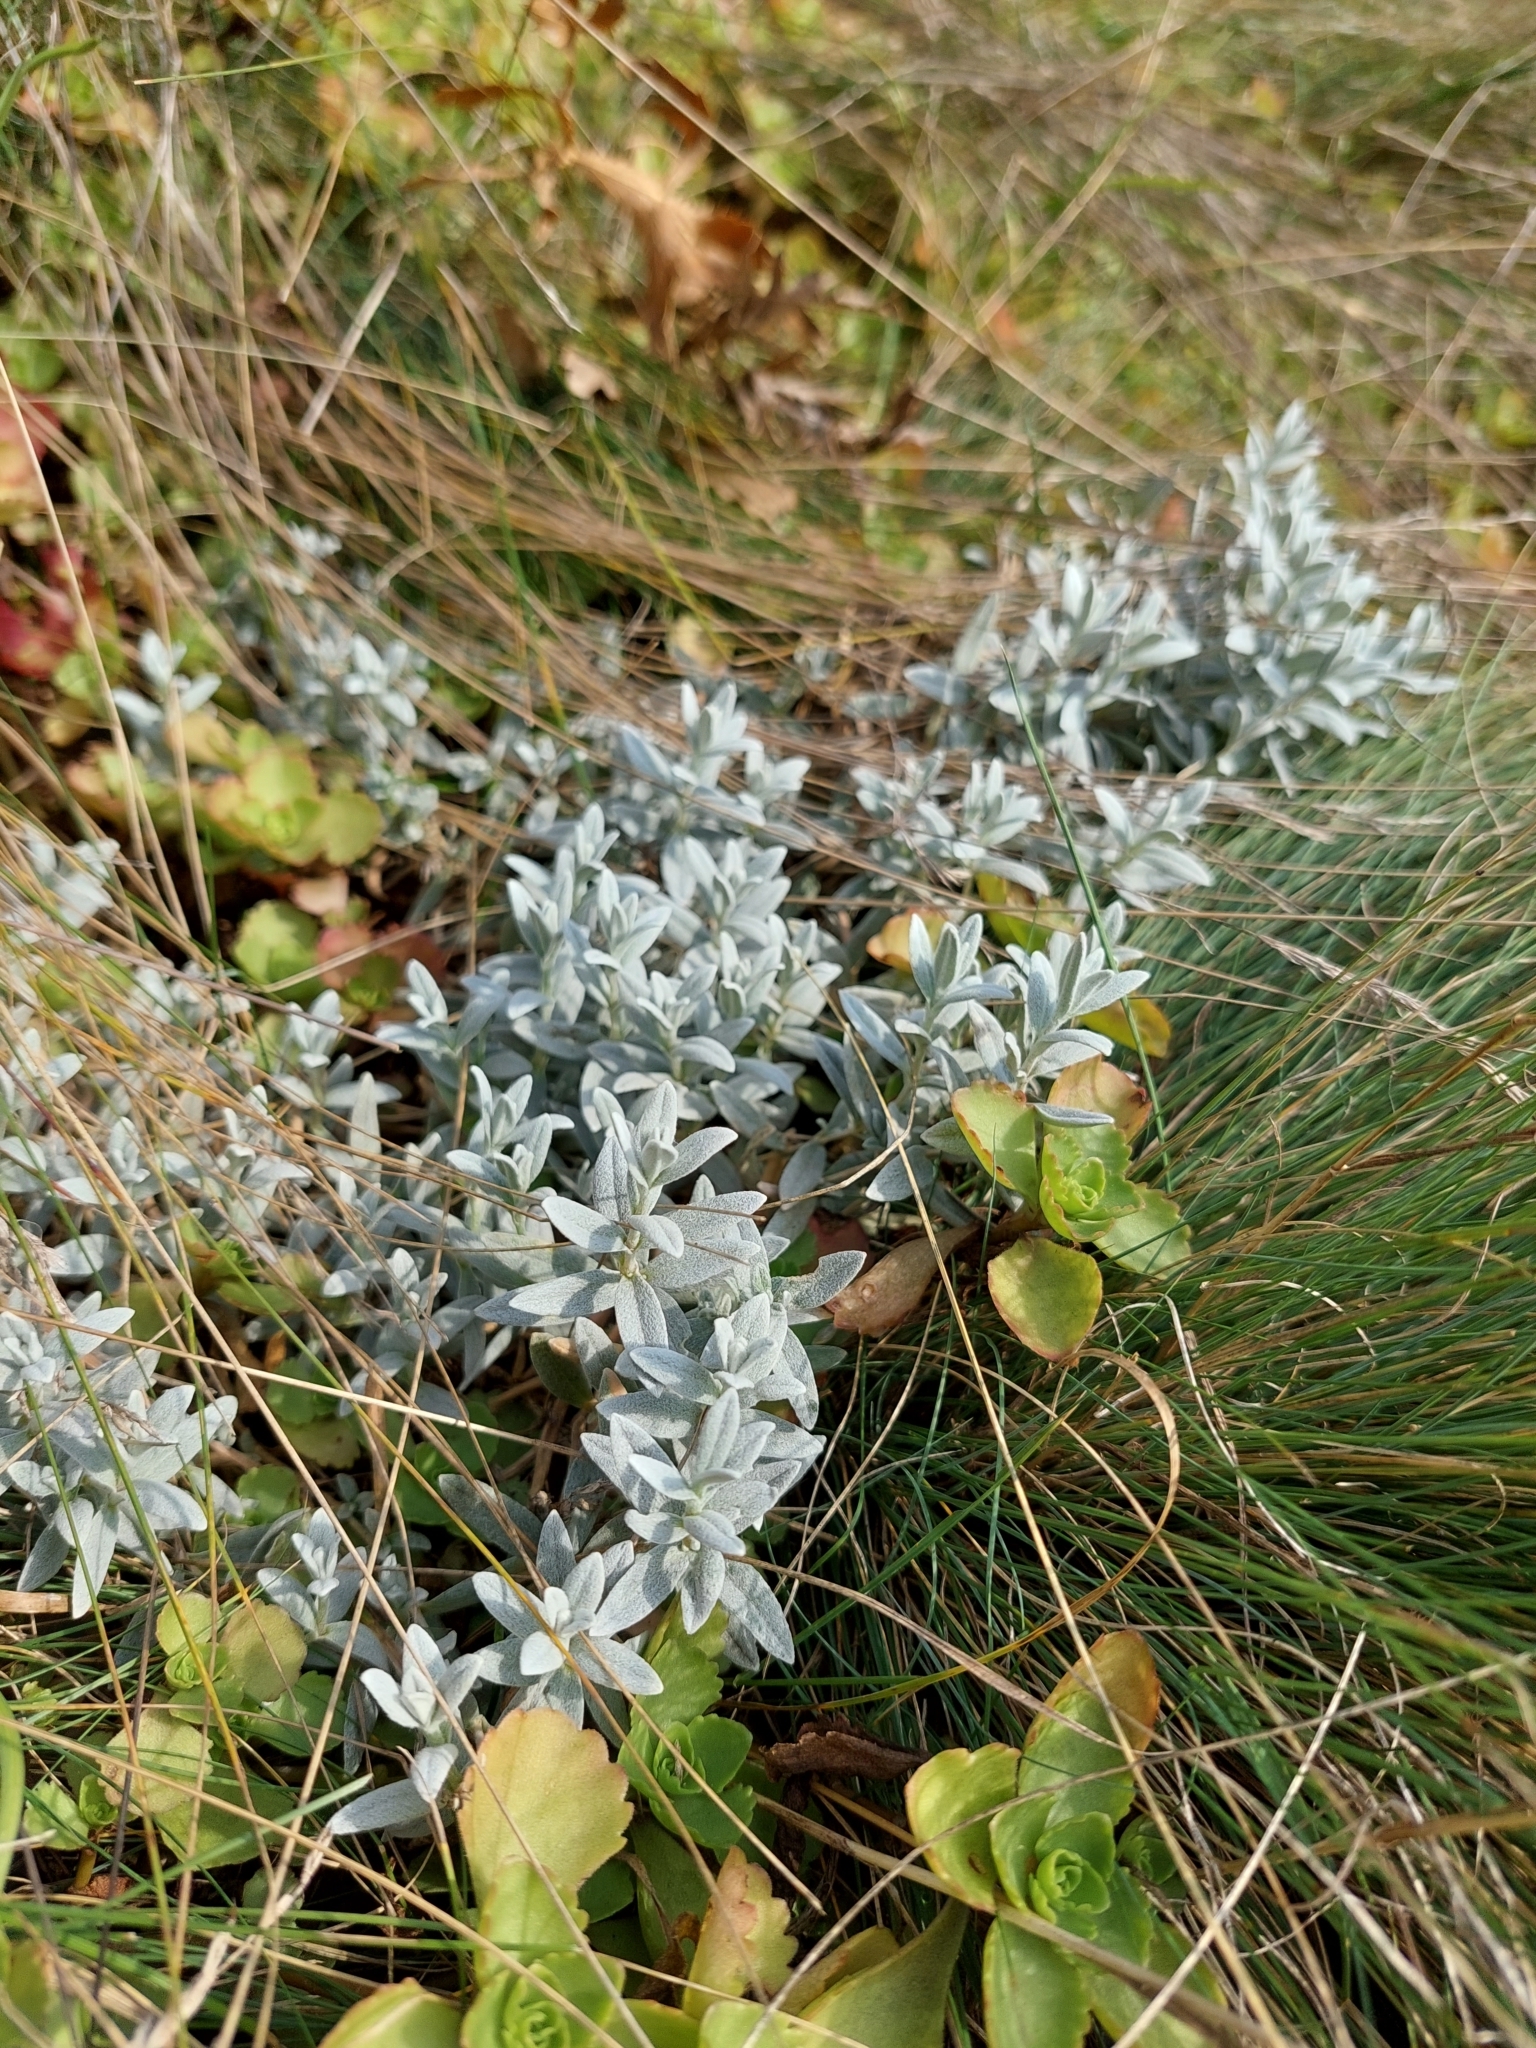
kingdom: Plantae
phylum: Tracheophyta
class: Magnoliopsida
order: Caryophyllales
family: Caryophyllaceae
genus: Cerastium
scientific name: Cerastium tomentosum
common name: Snow-in-summer
